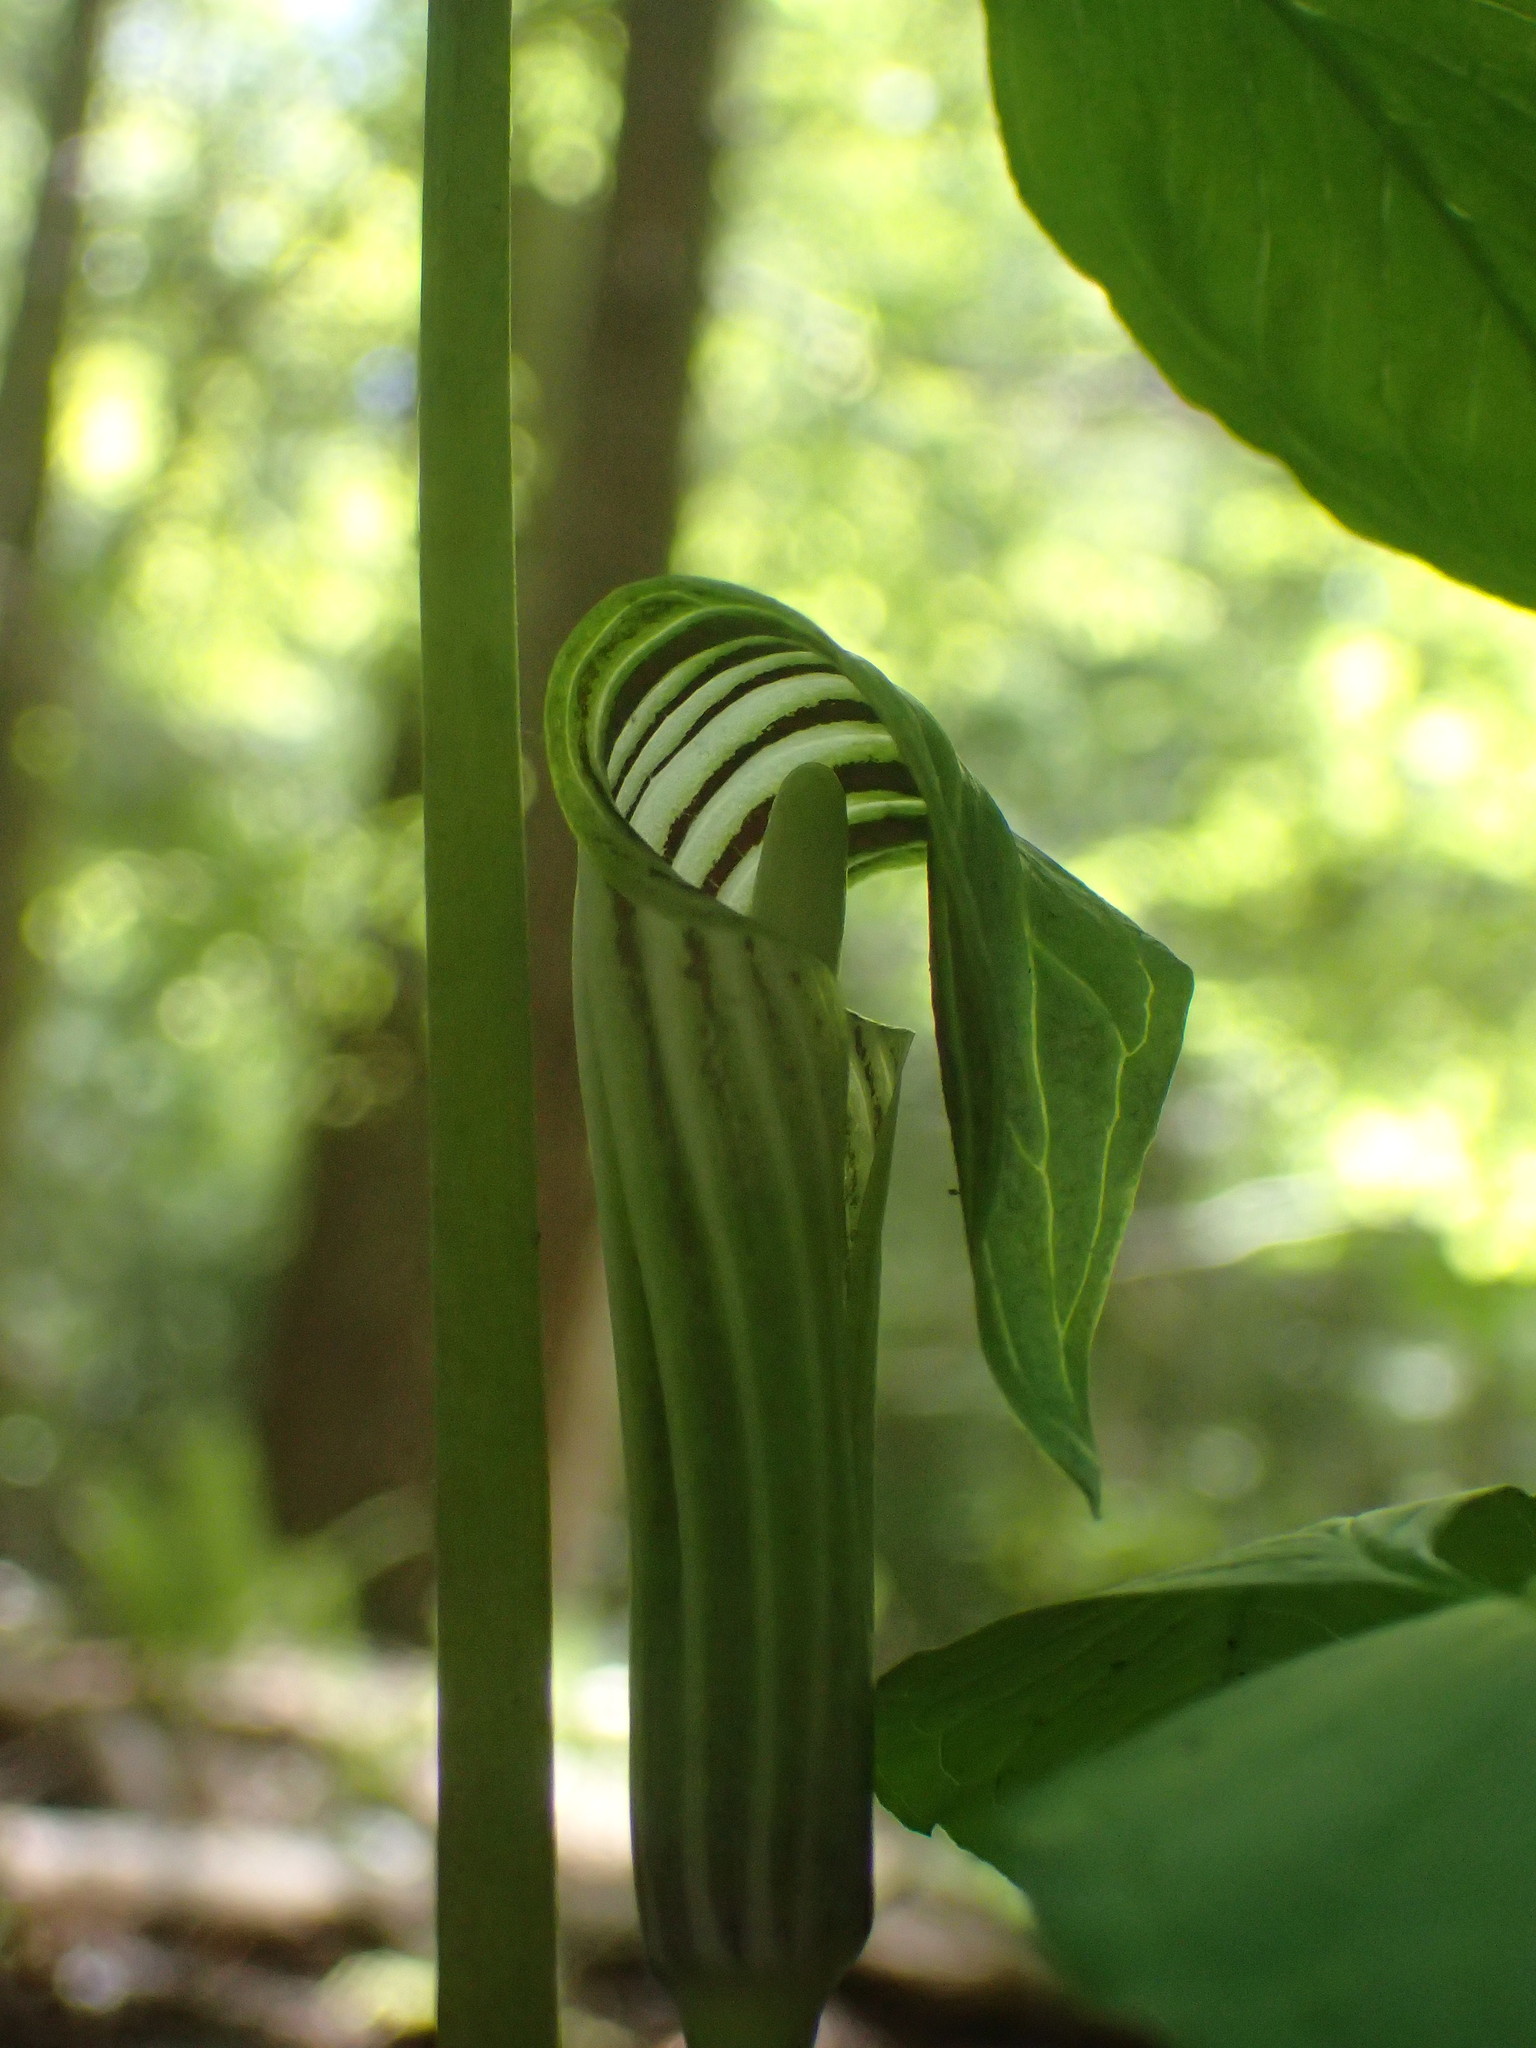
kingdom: Plantae
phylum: Tracheophyta
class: Liliopsida
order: Alismatales
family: Araceae
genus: Arisaema
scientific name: Arisaema stewardsonii
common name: Swamp jack-in-the-pulpit
